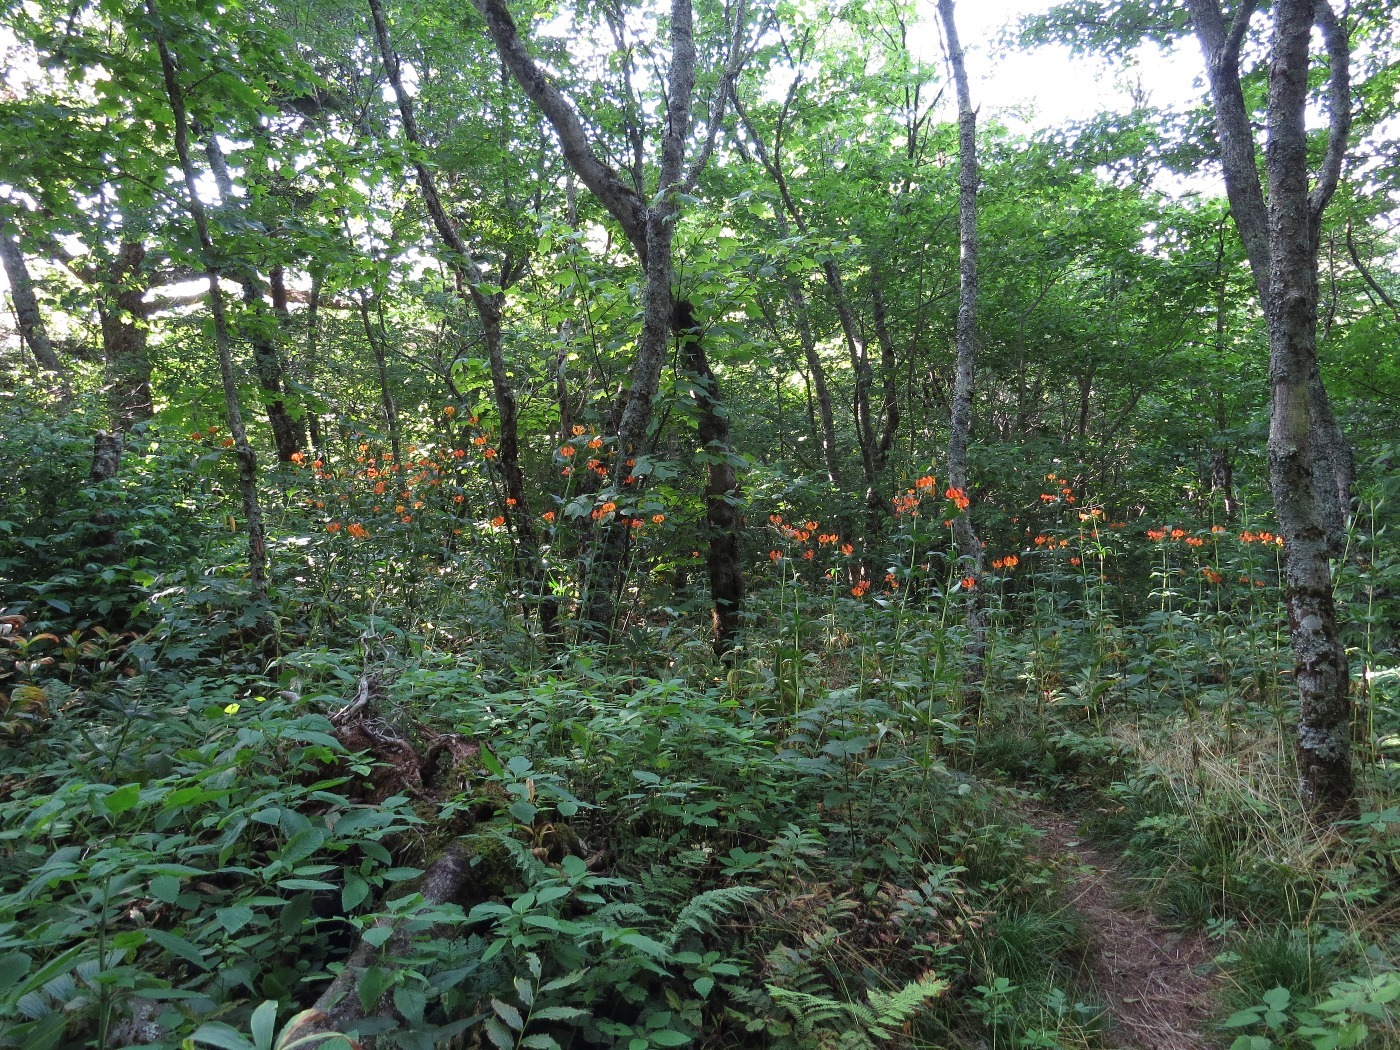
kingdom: Plantae
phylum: Tracheophyta
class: Liliopsida
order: Liliales
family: Liliaceae
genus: Lilium
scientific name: Lilium superbum
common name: American turk's-cap lily
